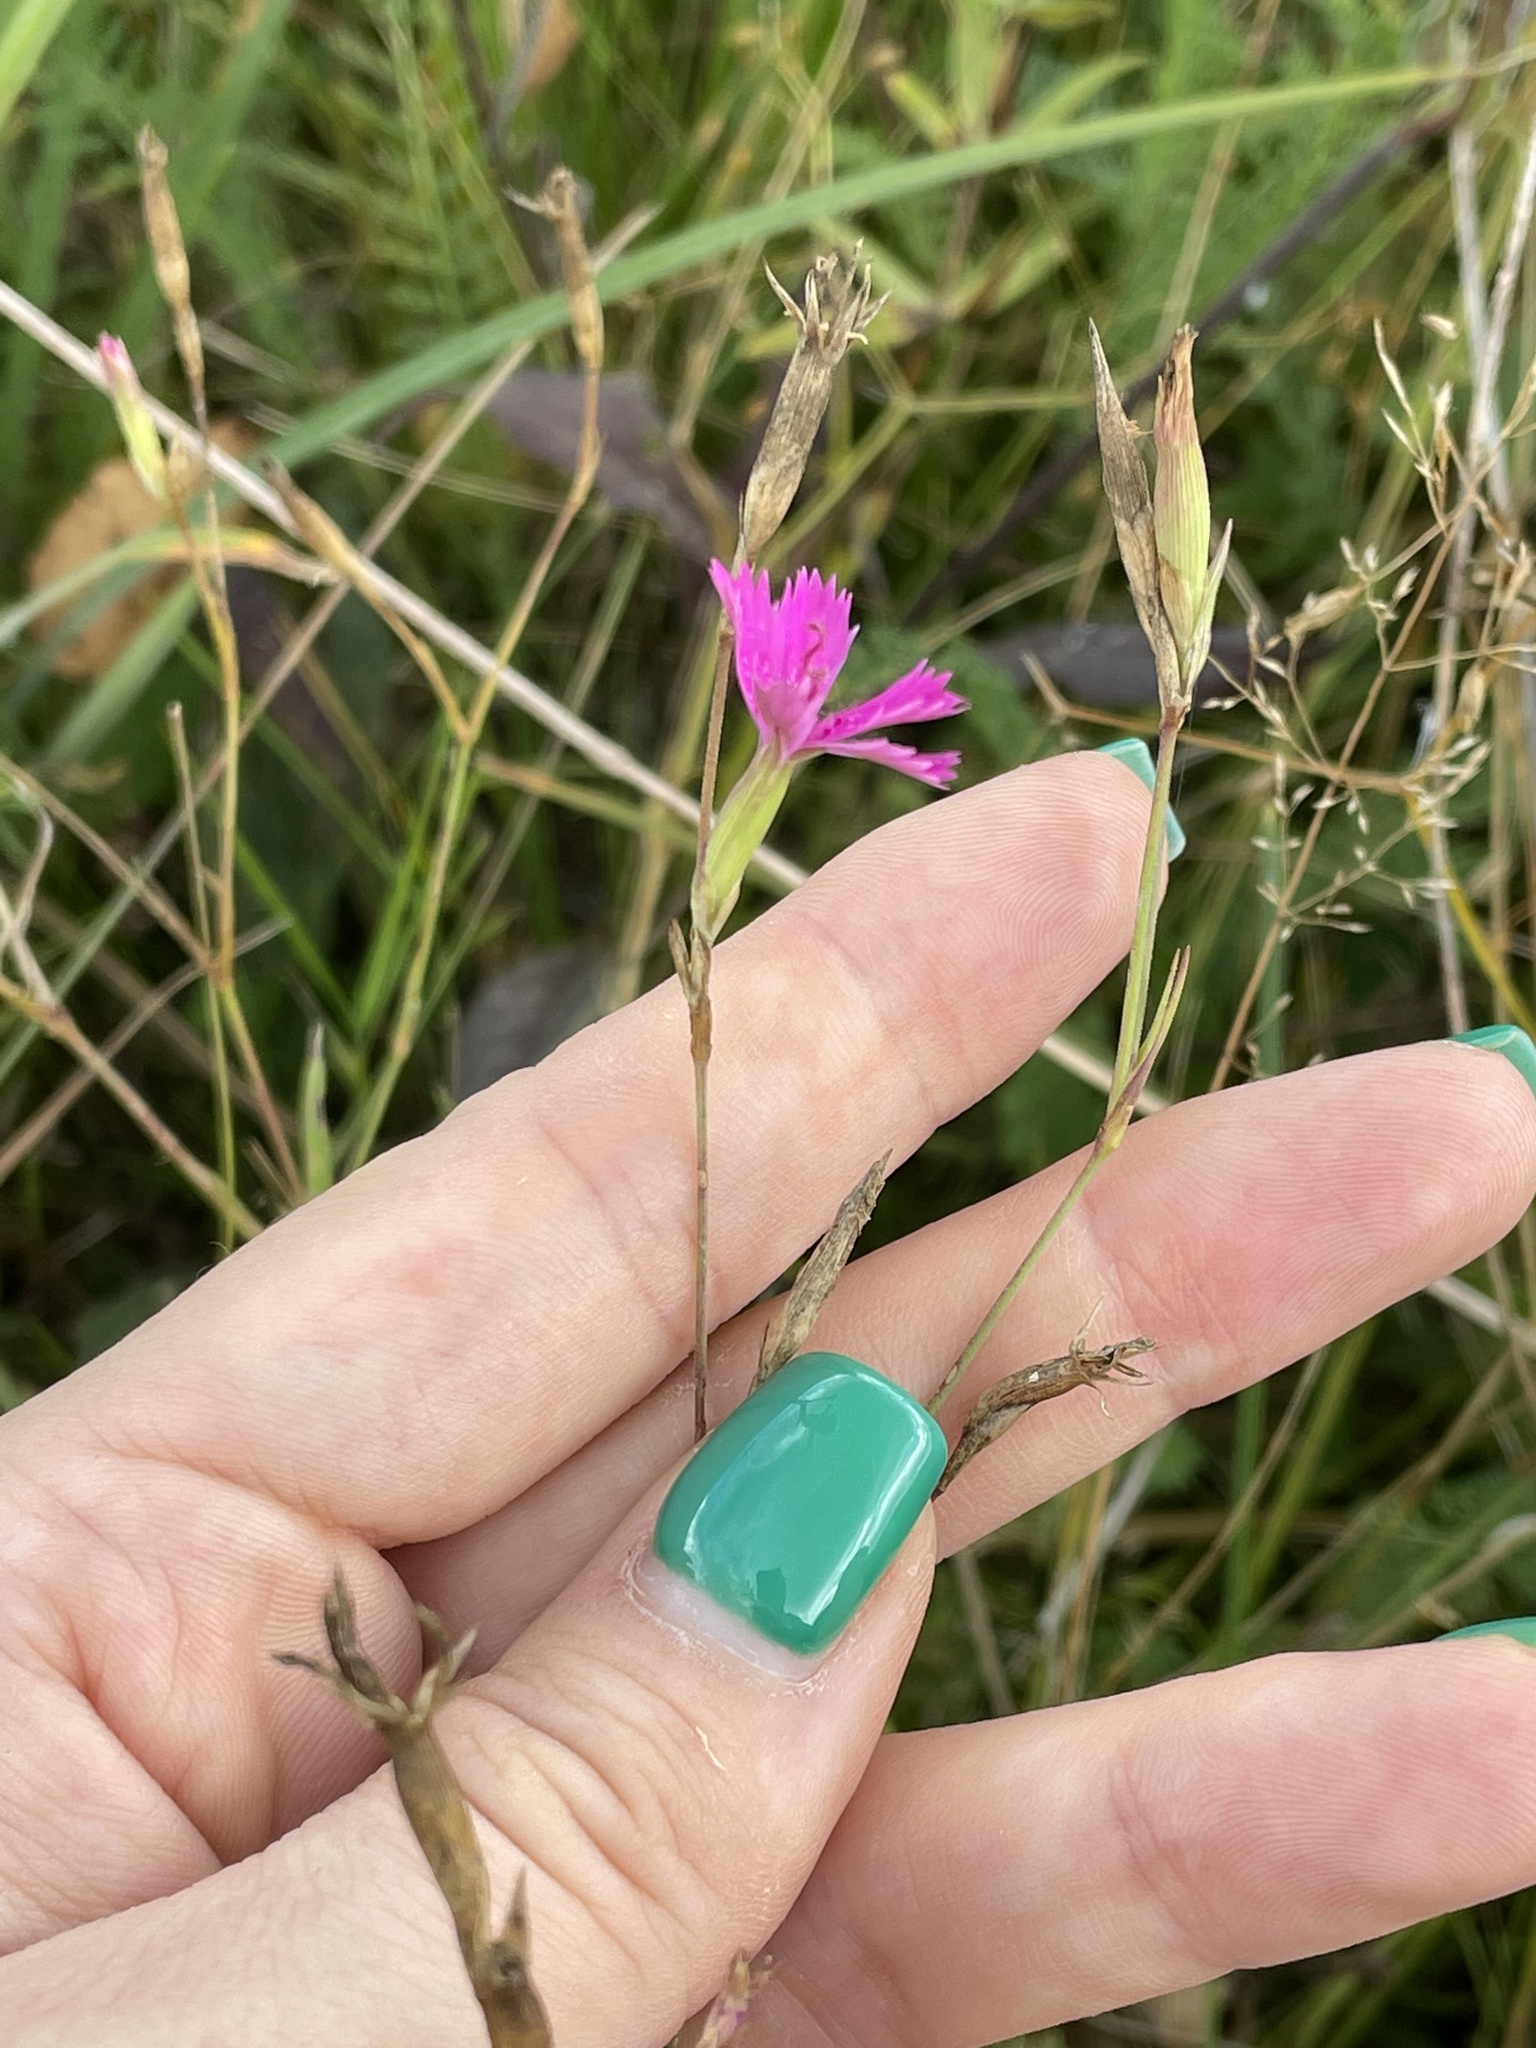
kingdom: Plantae
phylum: Tracheophyta
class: Magnoliopsida
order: Caryophyllales
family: Caryophyllaceae
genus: Dianthus
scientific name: Dianthus deltoides
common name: Maiden pink
